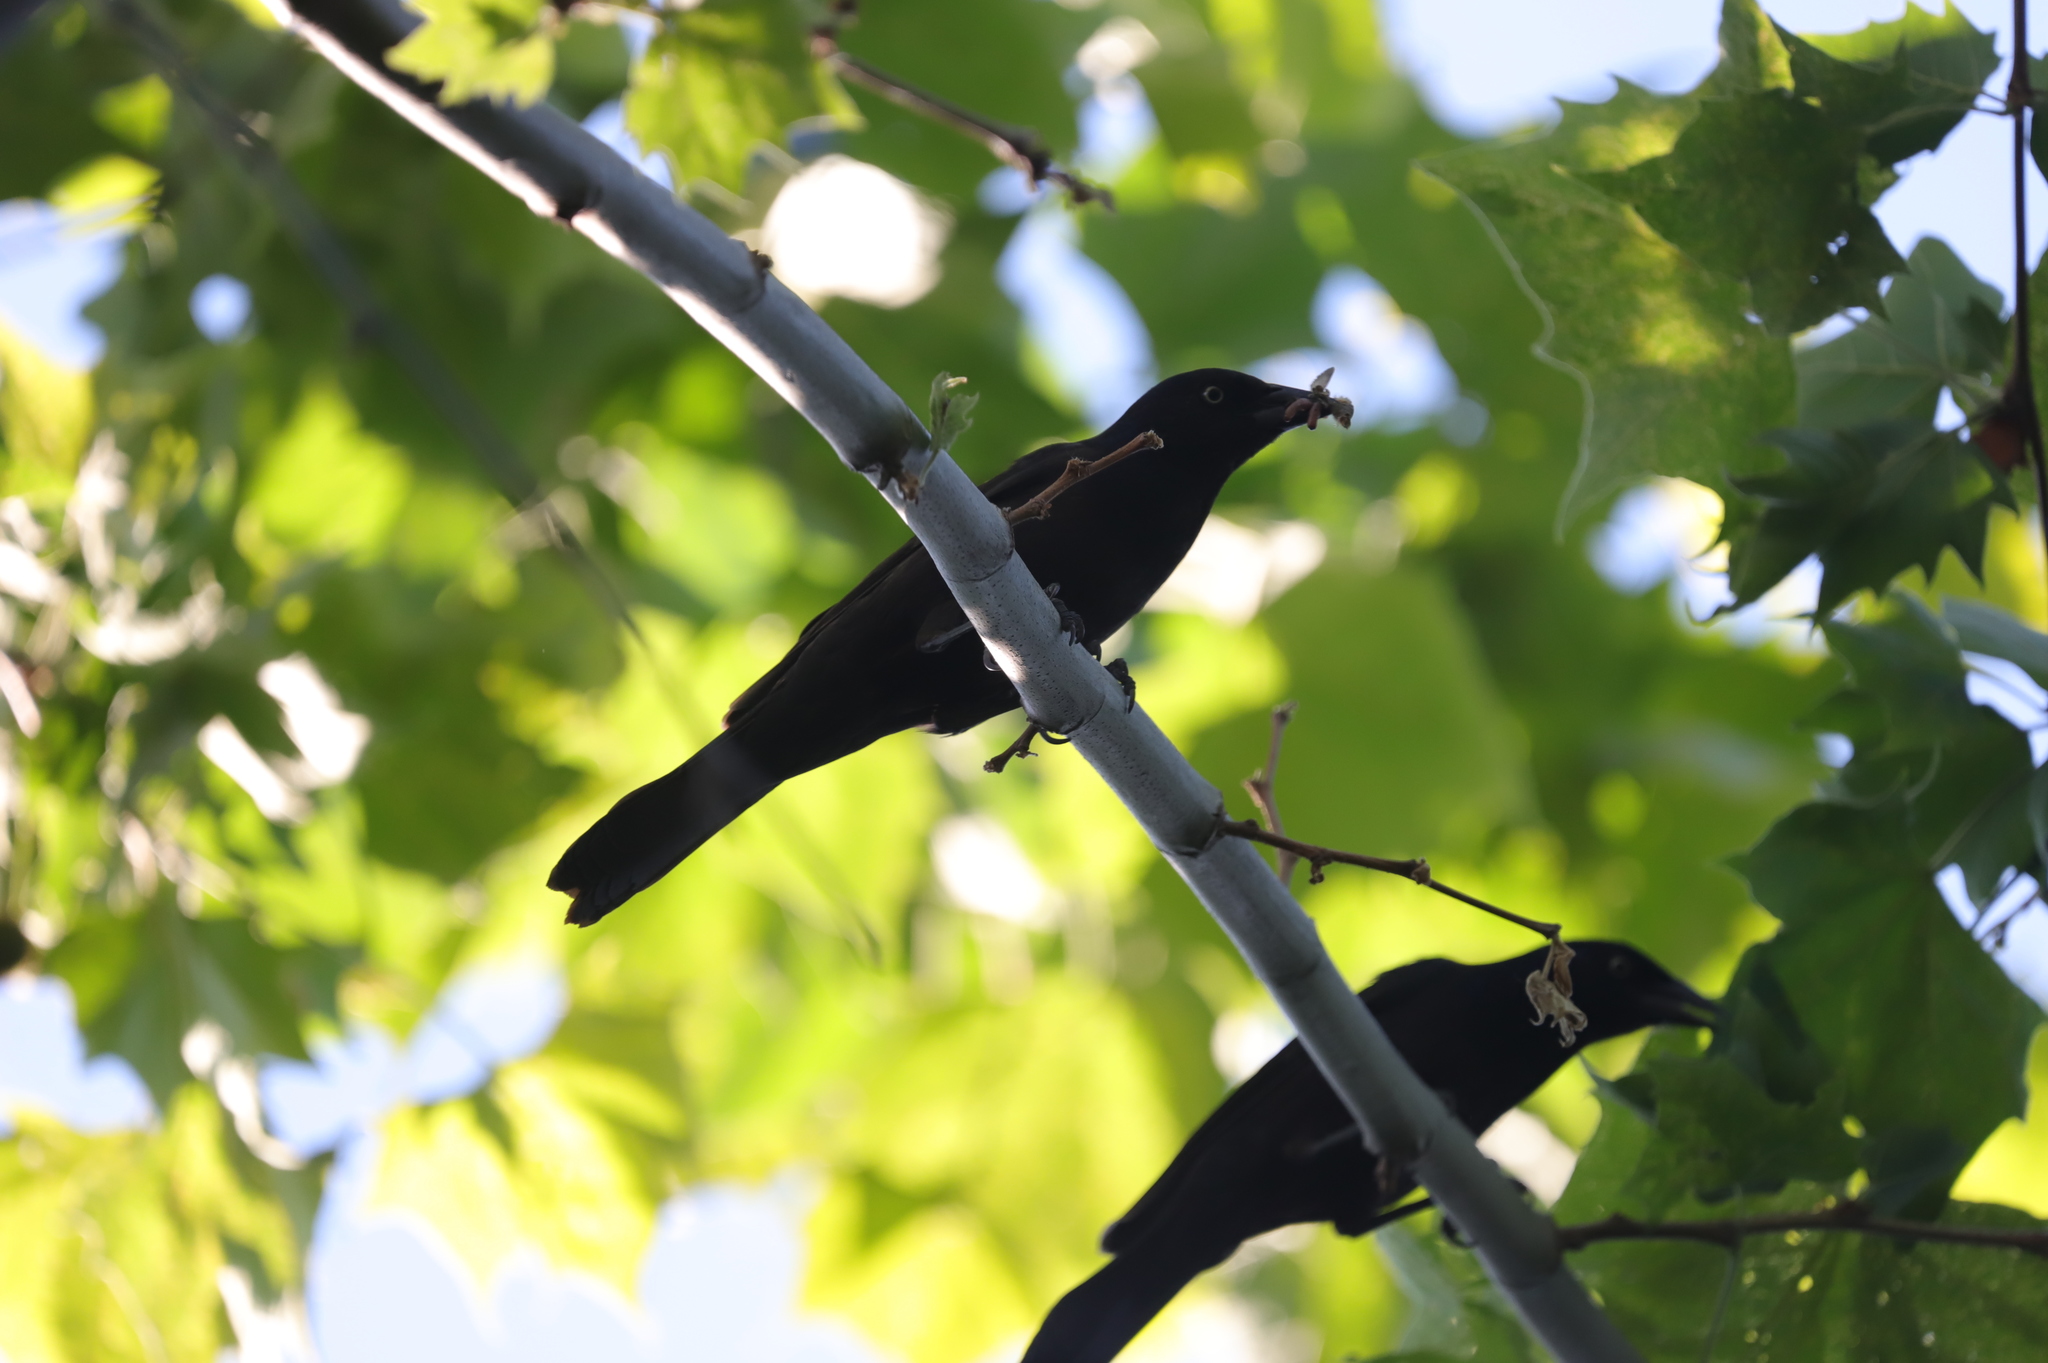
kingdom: Animalia
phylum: Chordata
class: Aves
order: Passeriformes
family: Icteridae
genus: Quiscalus
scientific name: Quiscalus quiscula
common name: Common grackle
